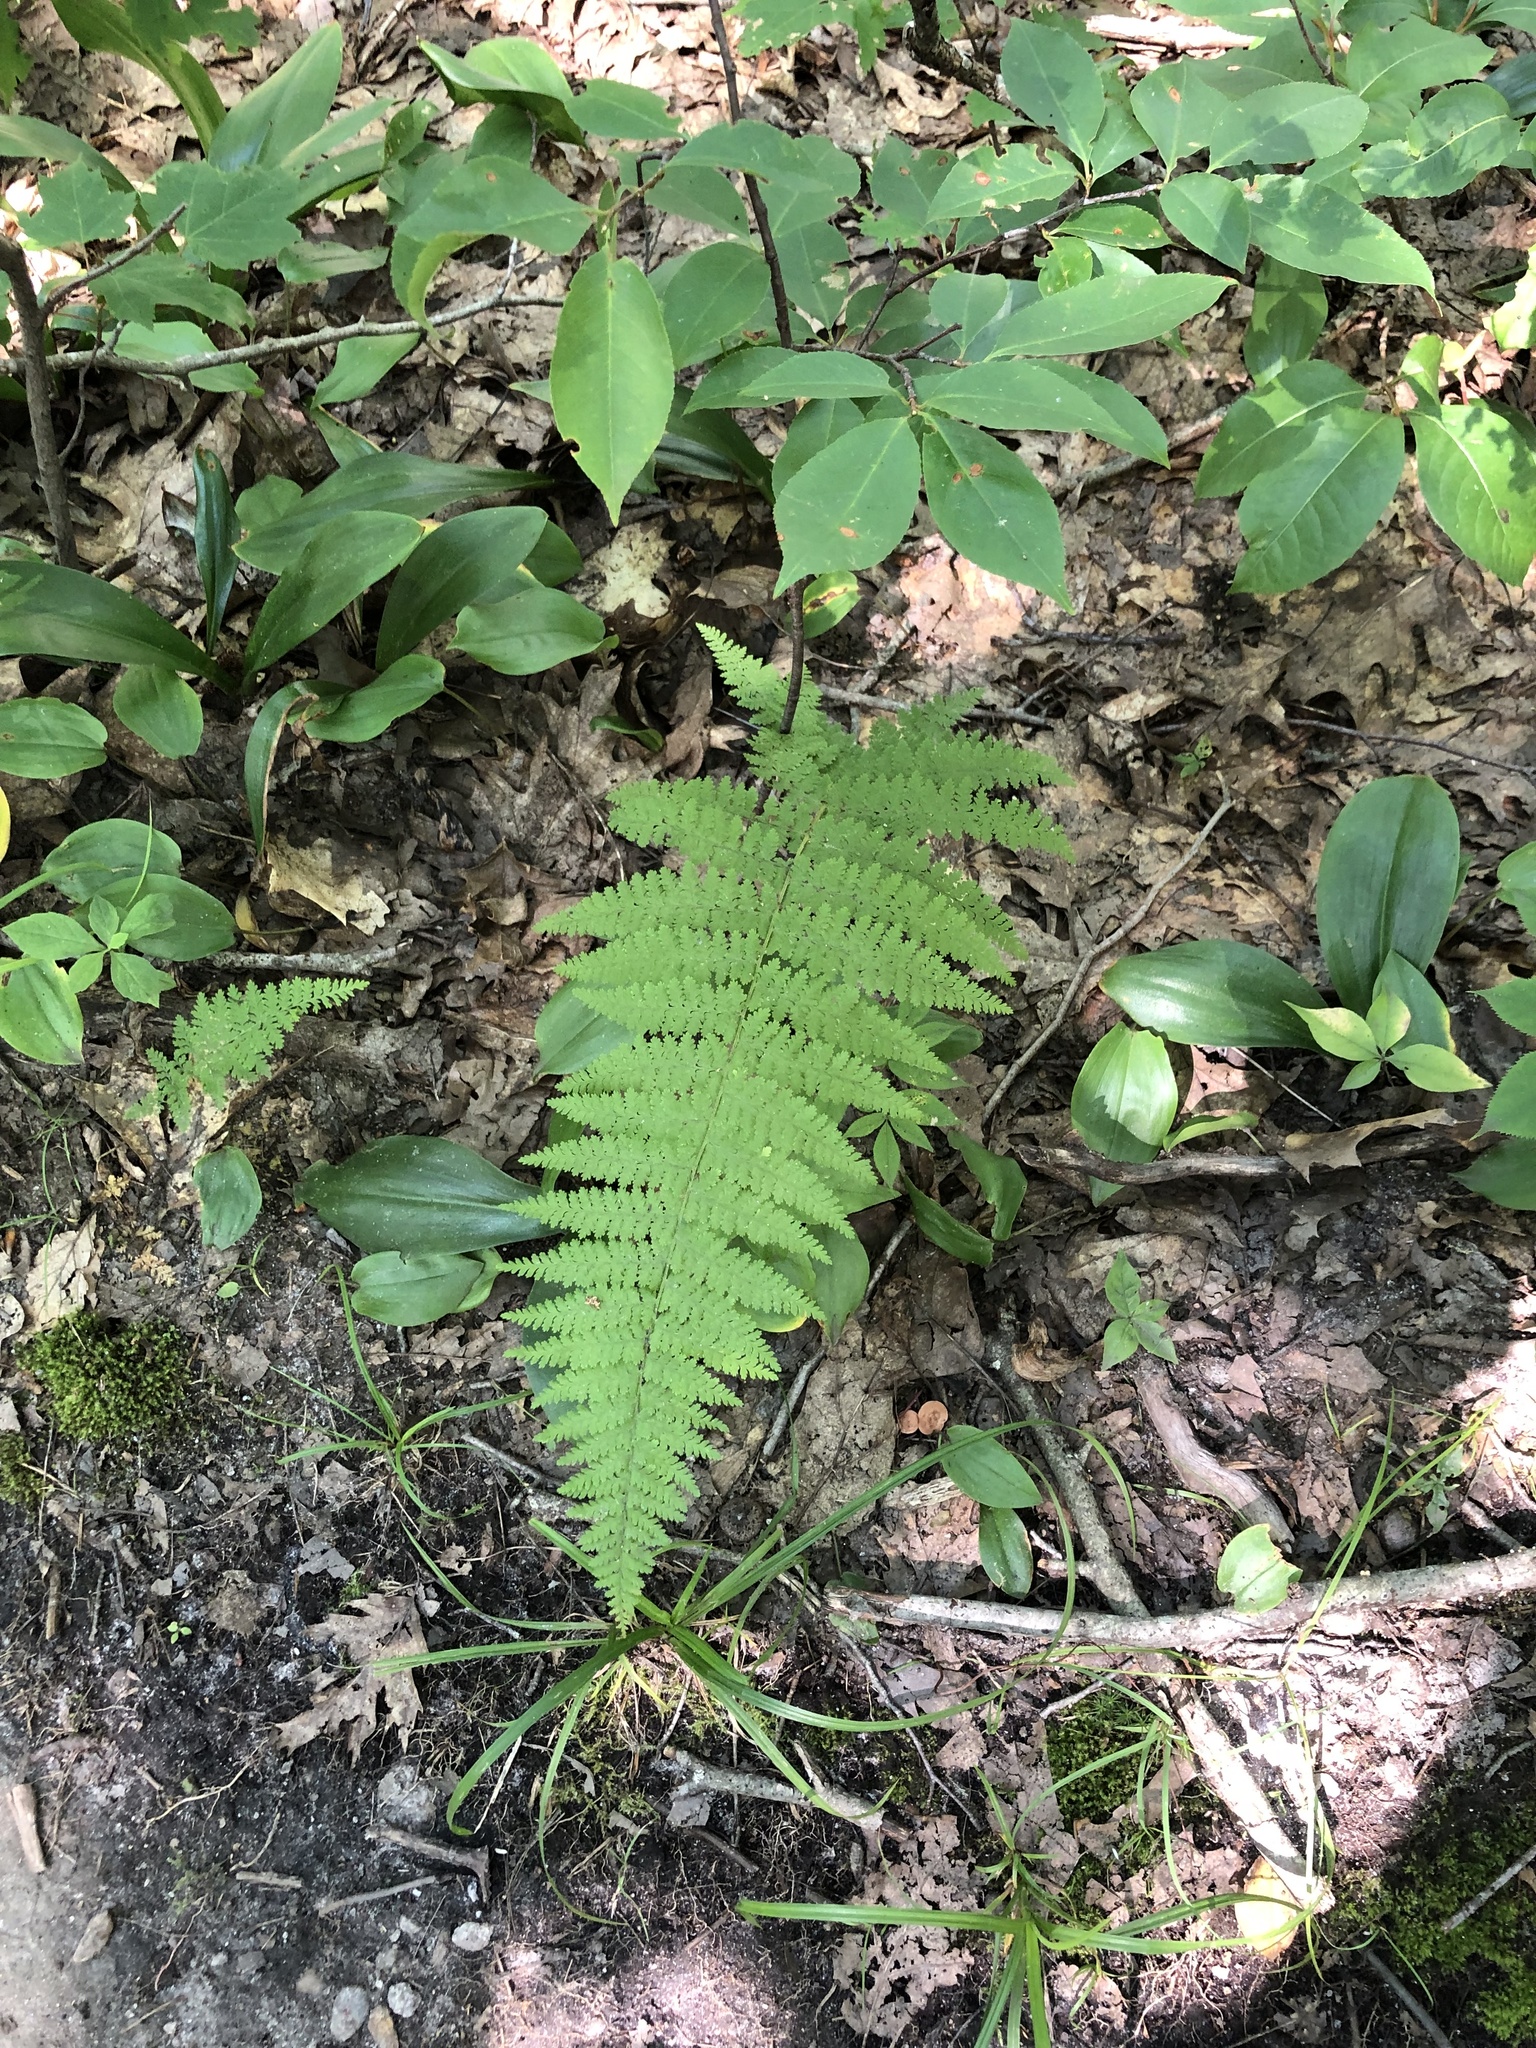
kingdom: Plantae
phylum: Tracheophyta
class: Polypodiopsida
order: Polypodiales
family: Dennstaedtiaceae
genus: Sitobolium
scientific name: Sitobolium punctilobum
